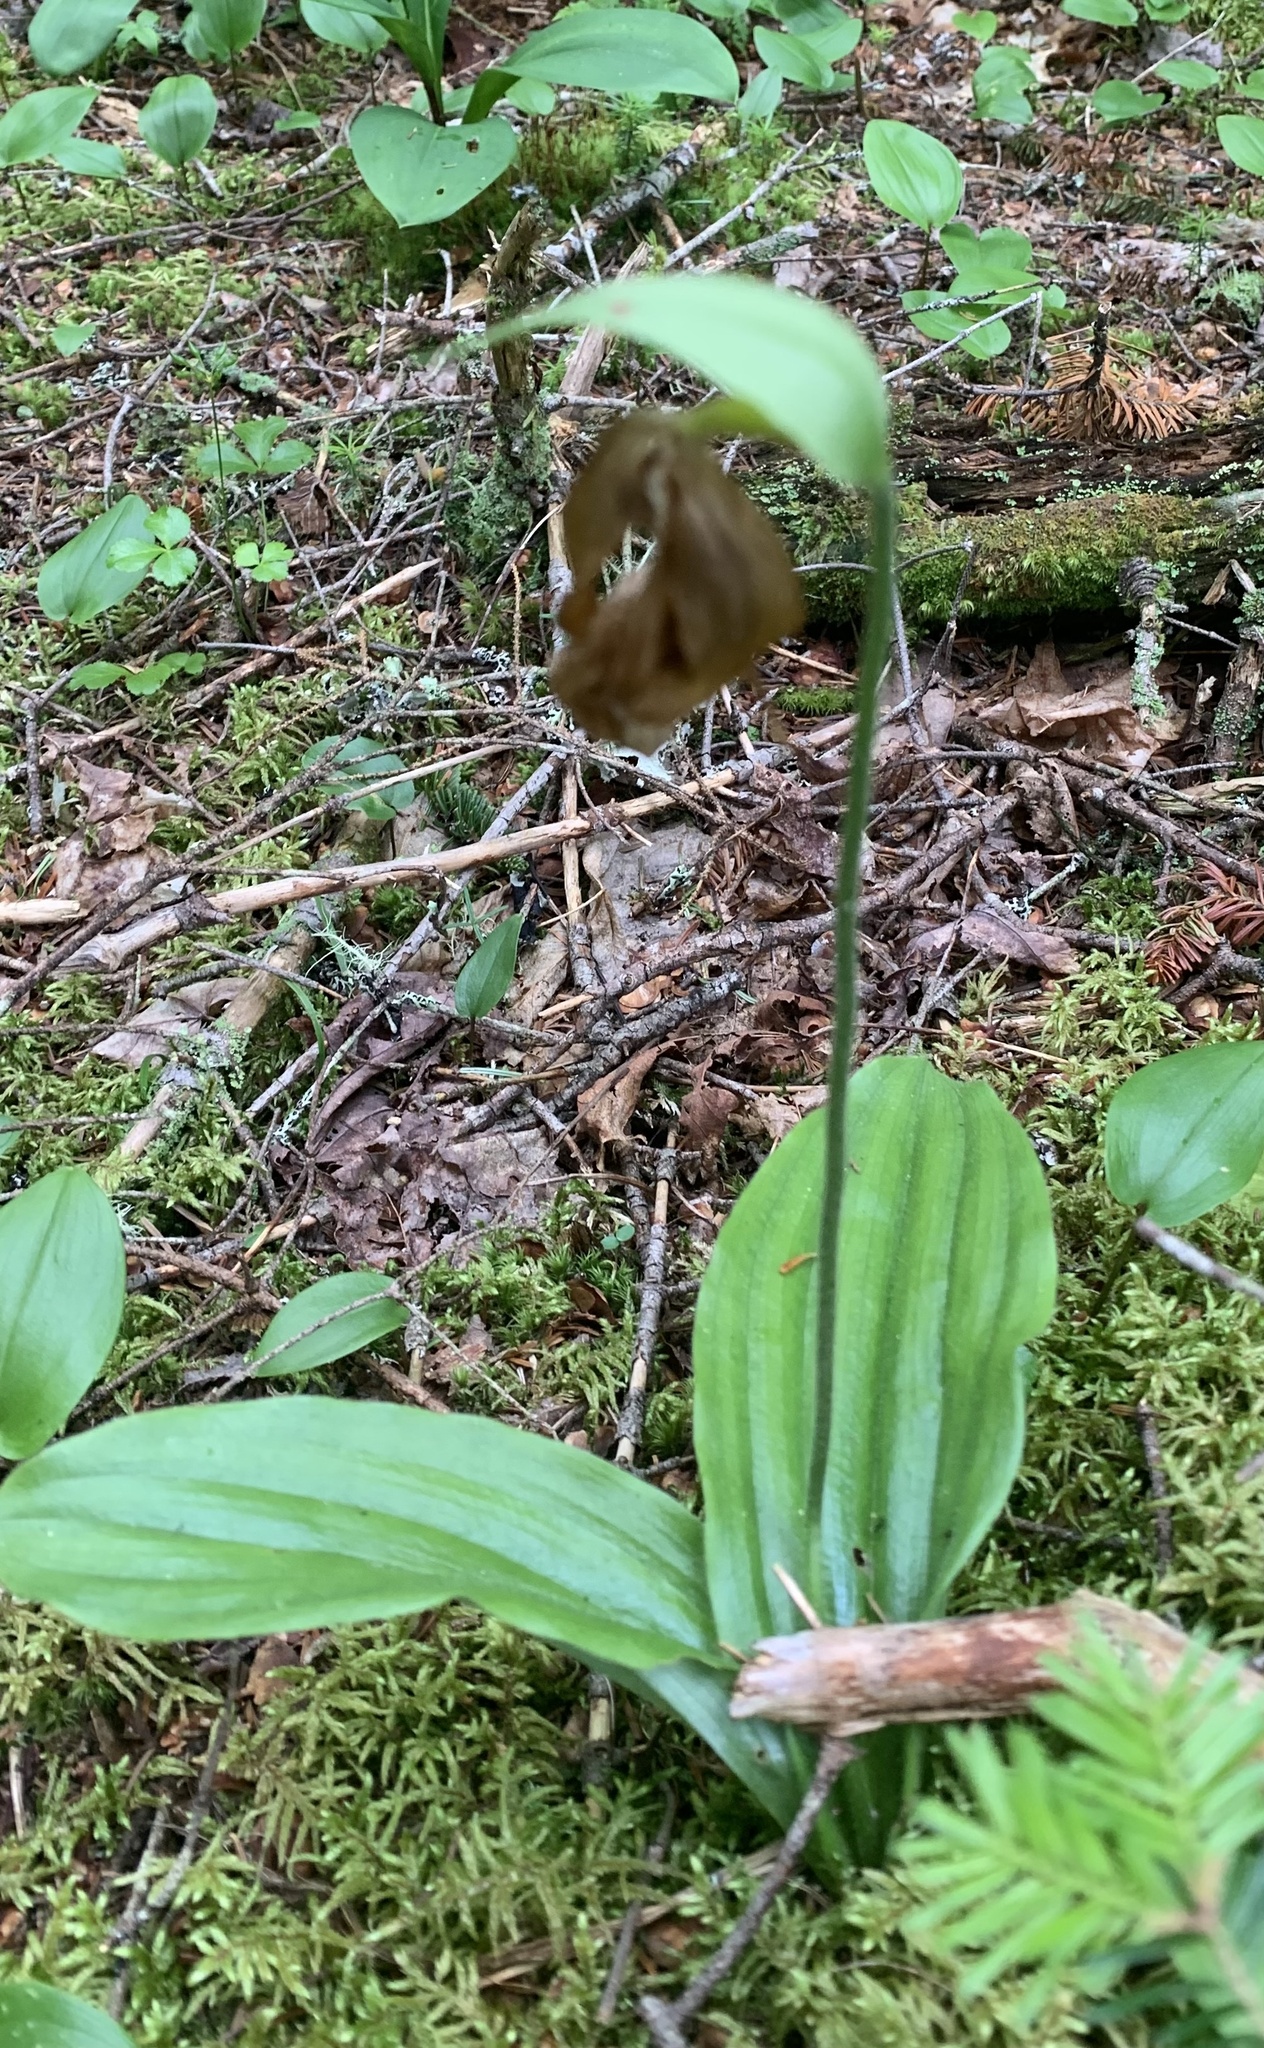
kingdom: Plantae
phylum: Tracheophyta
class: Liliopsida
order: Asparagales
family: Orchidaceae
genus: Cypripedium
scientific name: Cypripedium acaule
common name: Pink lady's-slipper
